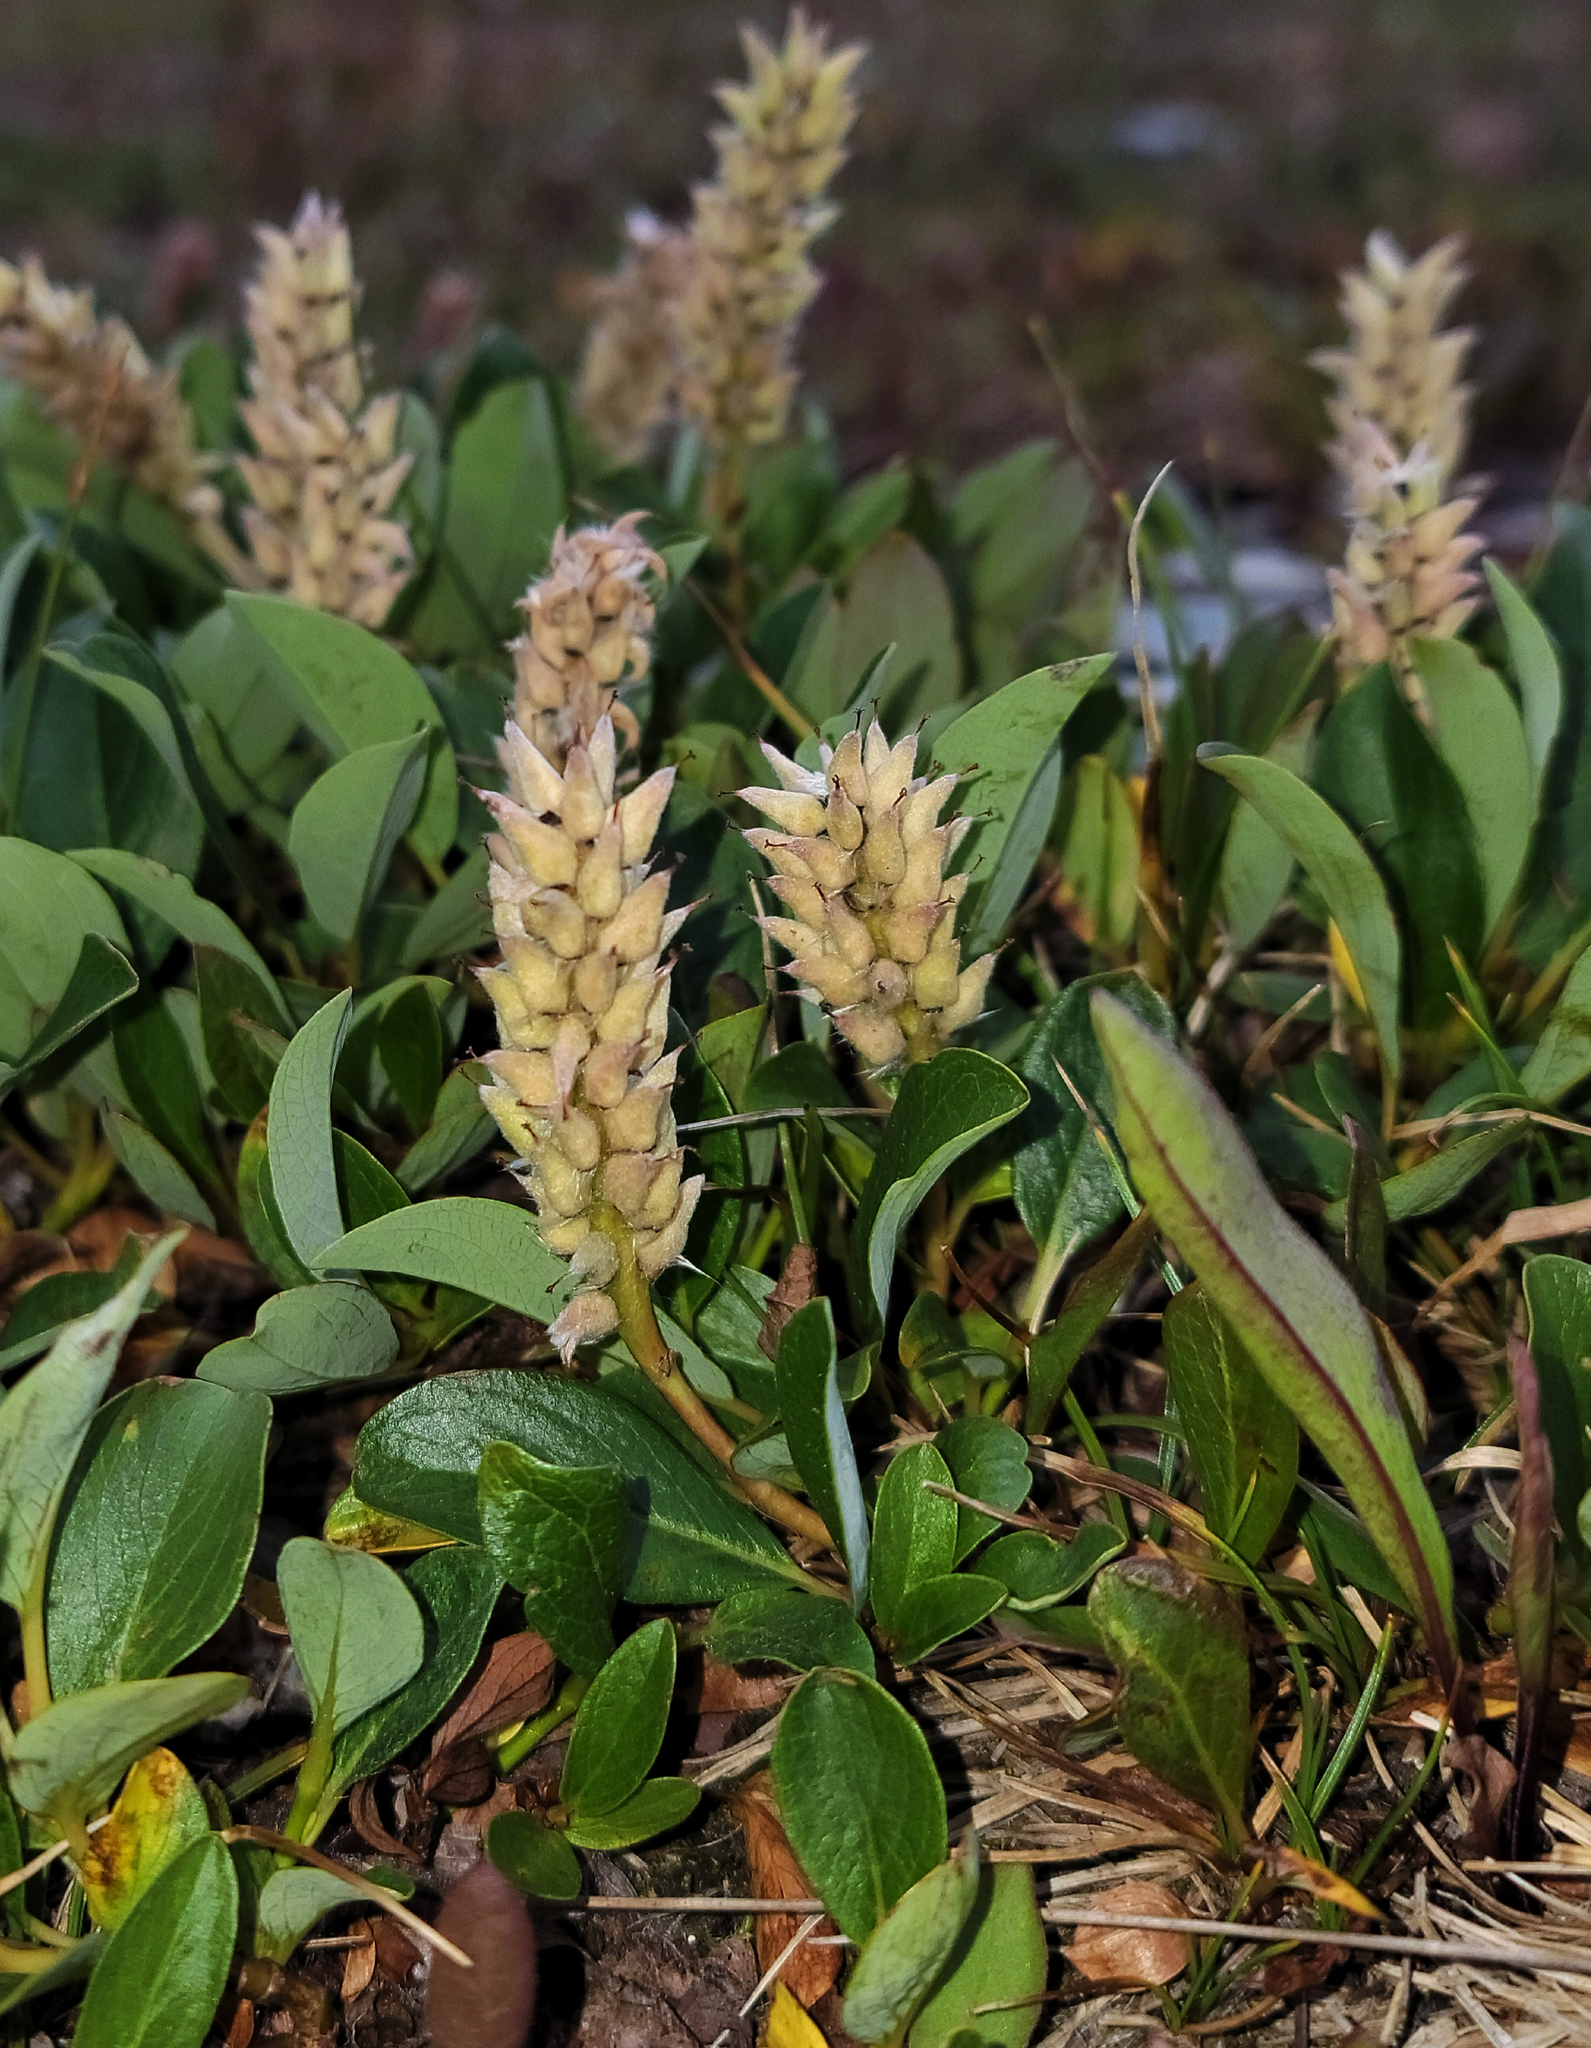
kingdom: Plantae
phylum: Tracheophyta
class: Magnoliopsida
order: Malpighiales
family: Salicaceae
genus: Salix
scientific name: Salix petrophila
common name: Rocky mountain willow
